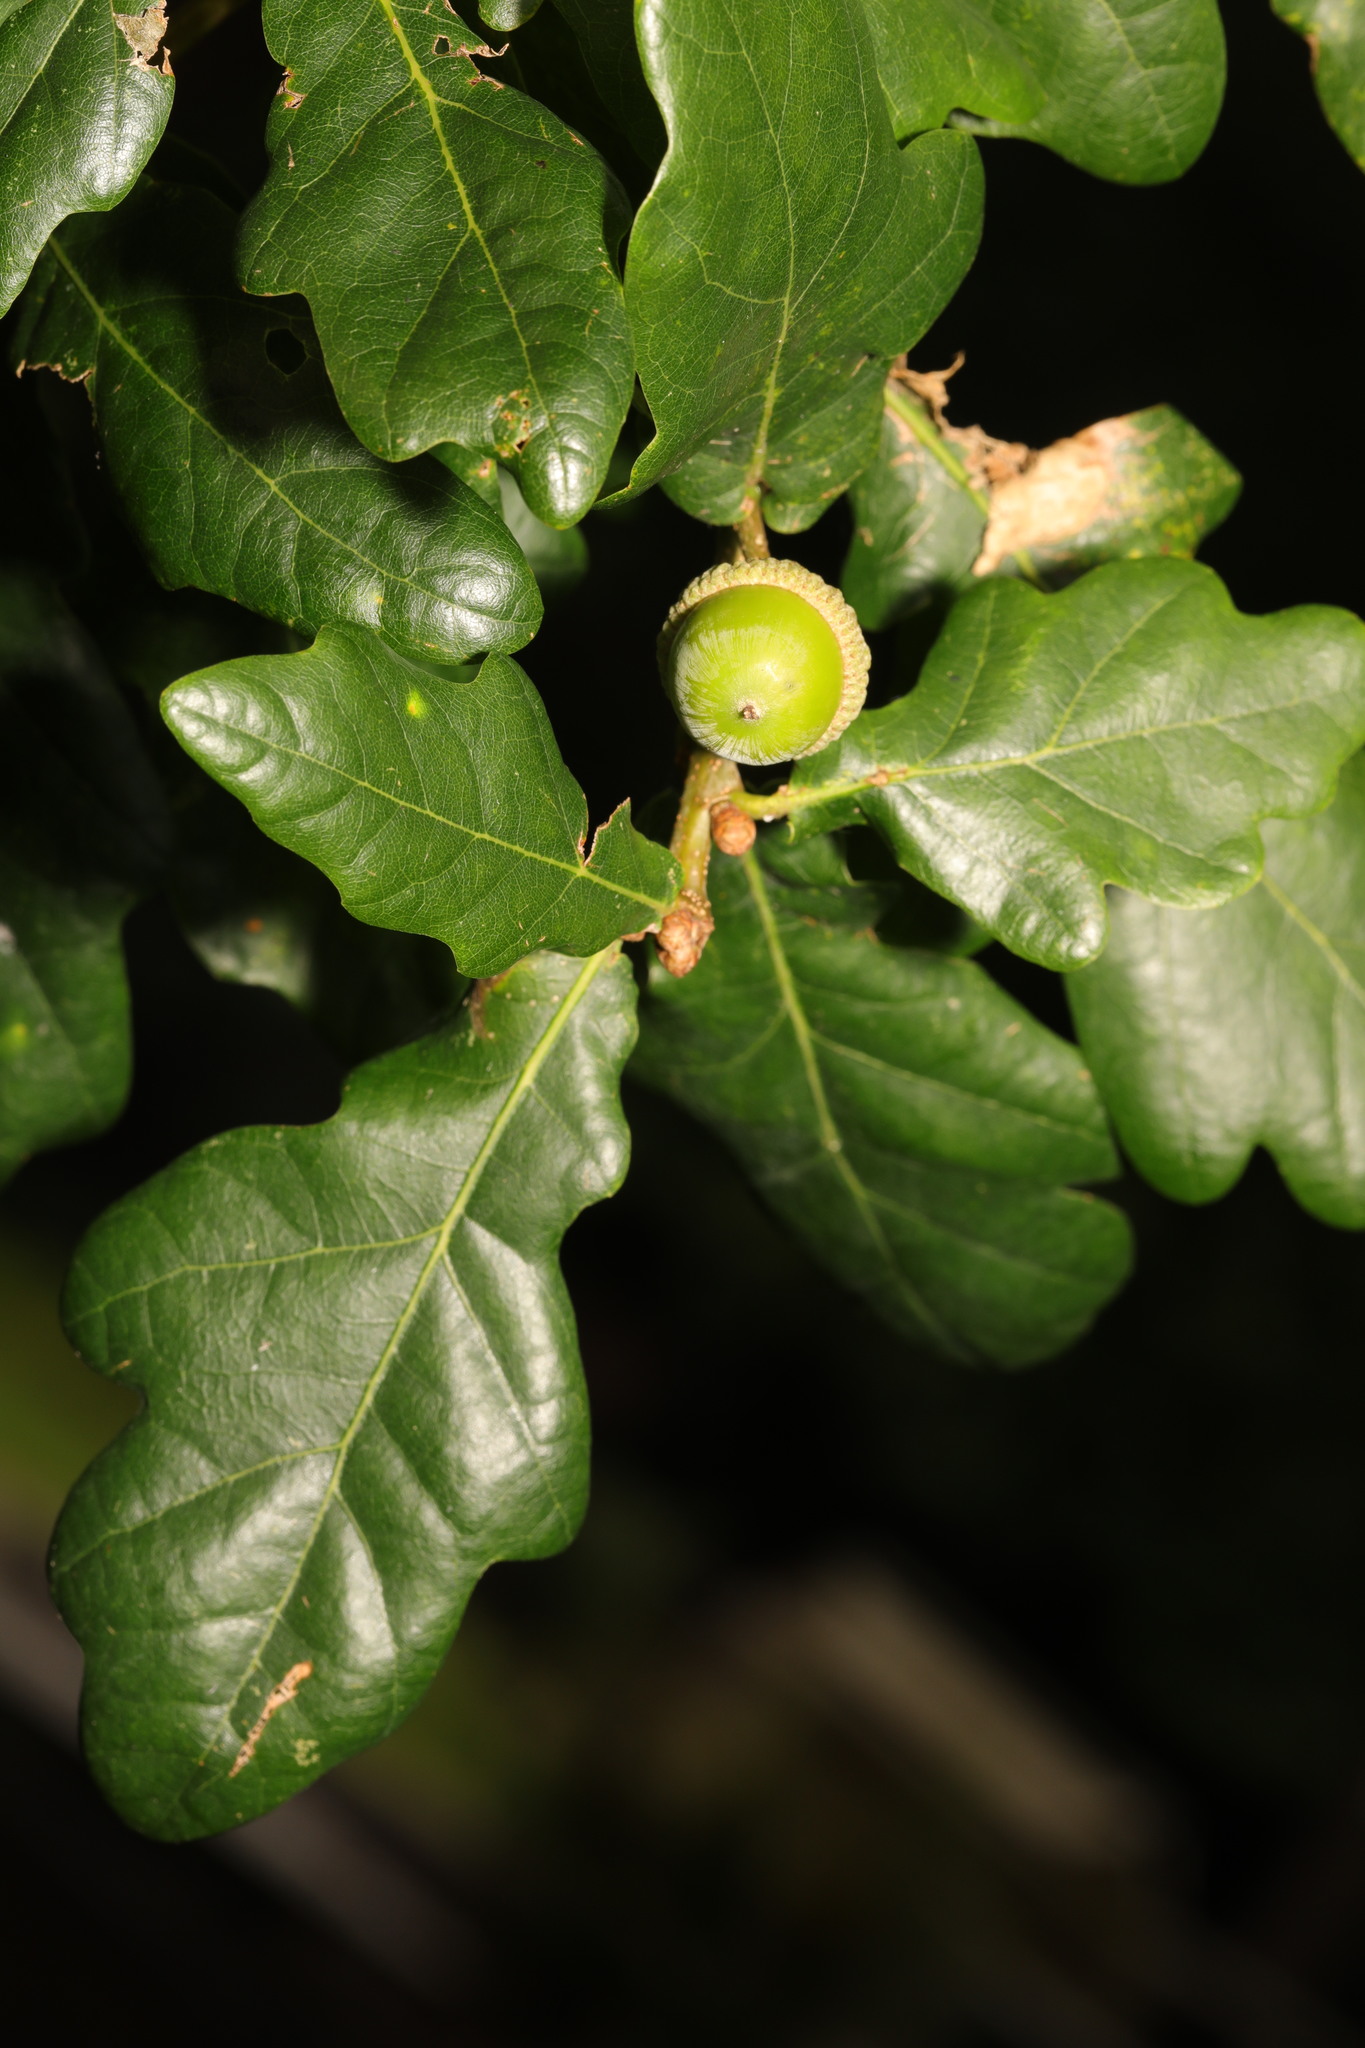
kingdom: Plantae
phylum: Tracheophyta
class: Magnoliopsida
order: Fagales
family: Fagaceae
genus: Quercus
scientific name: Quercus robur
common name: Pedunculate oak
